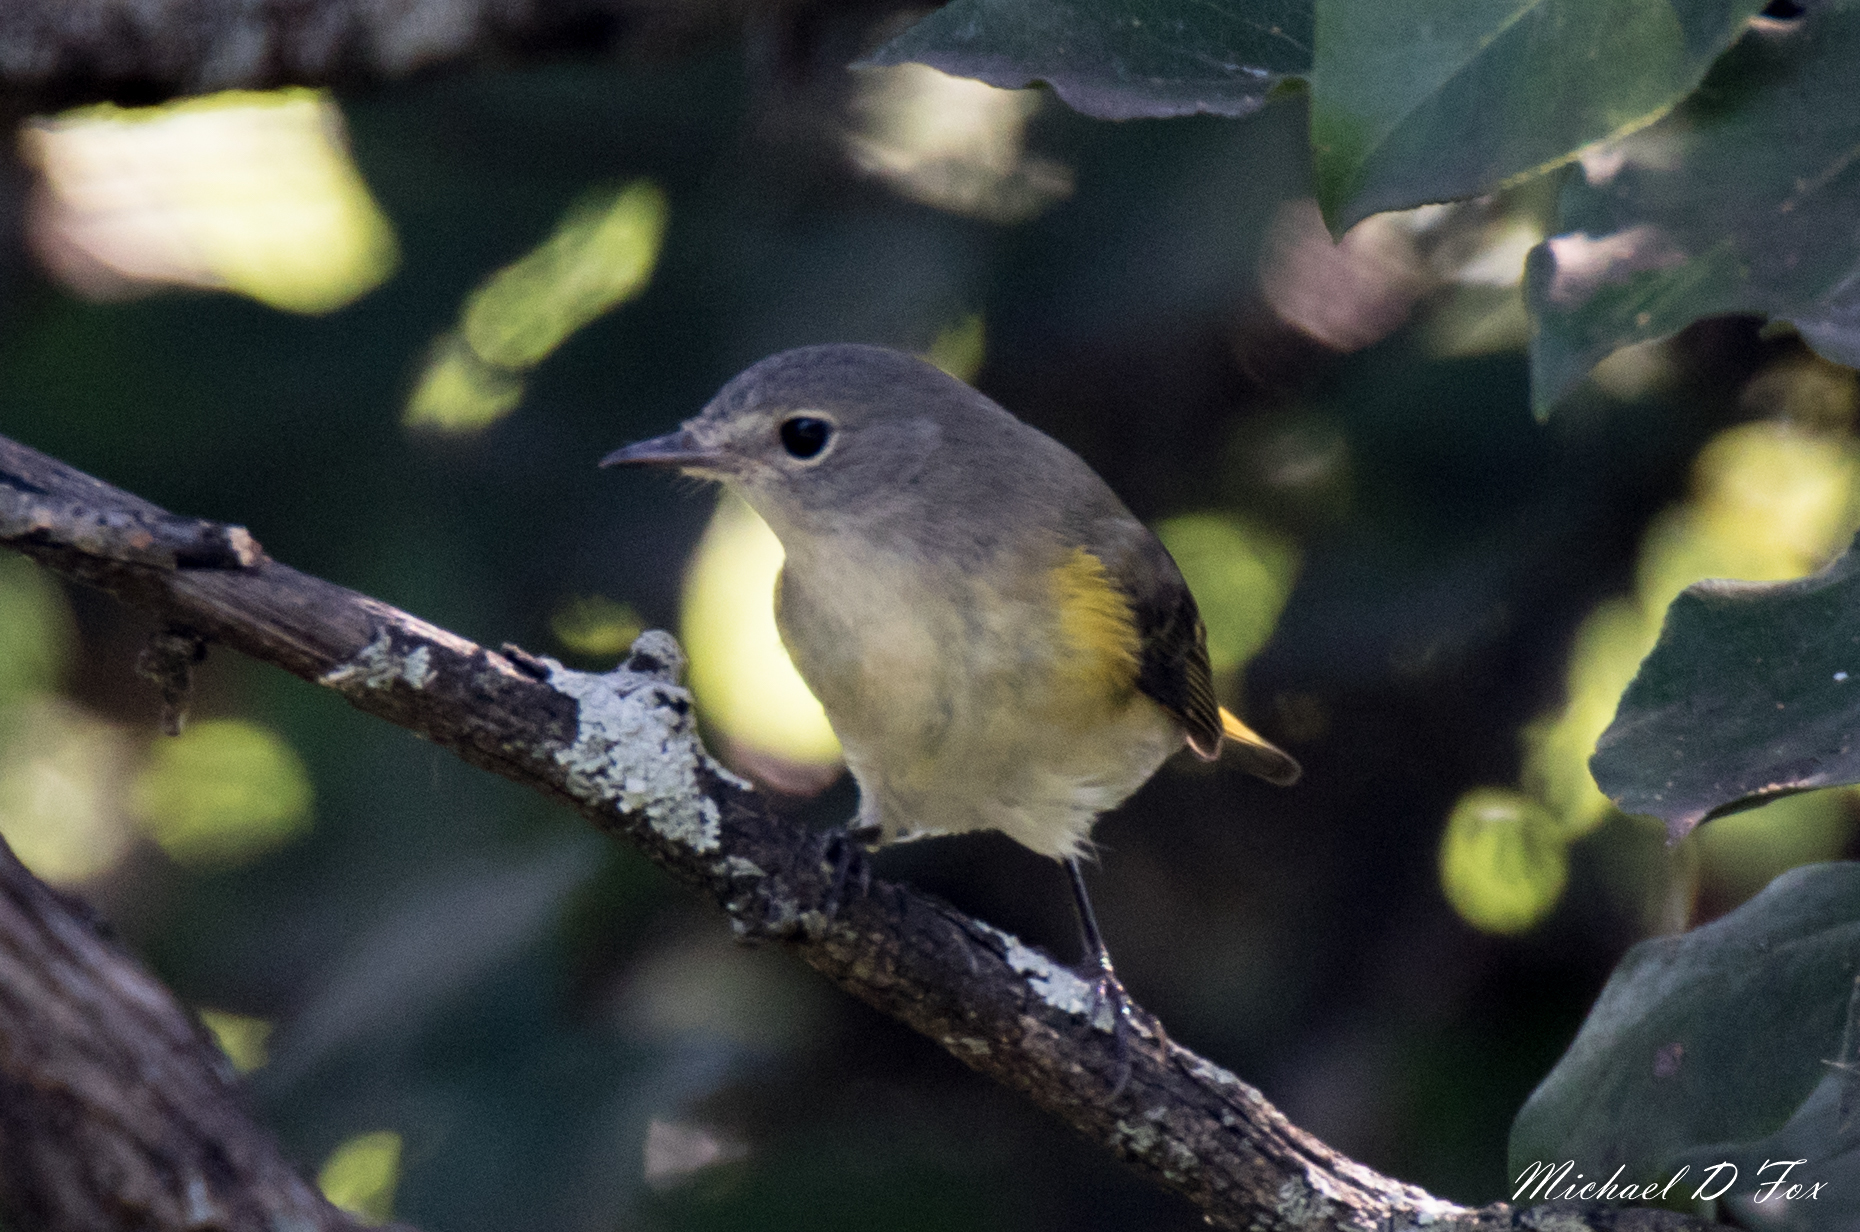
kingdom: Animalia
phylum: Chordata
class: Aves
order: Passeriformes
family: Parulidae
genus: Setophaga
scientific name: Setophaga ruticilla
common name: American redstart
